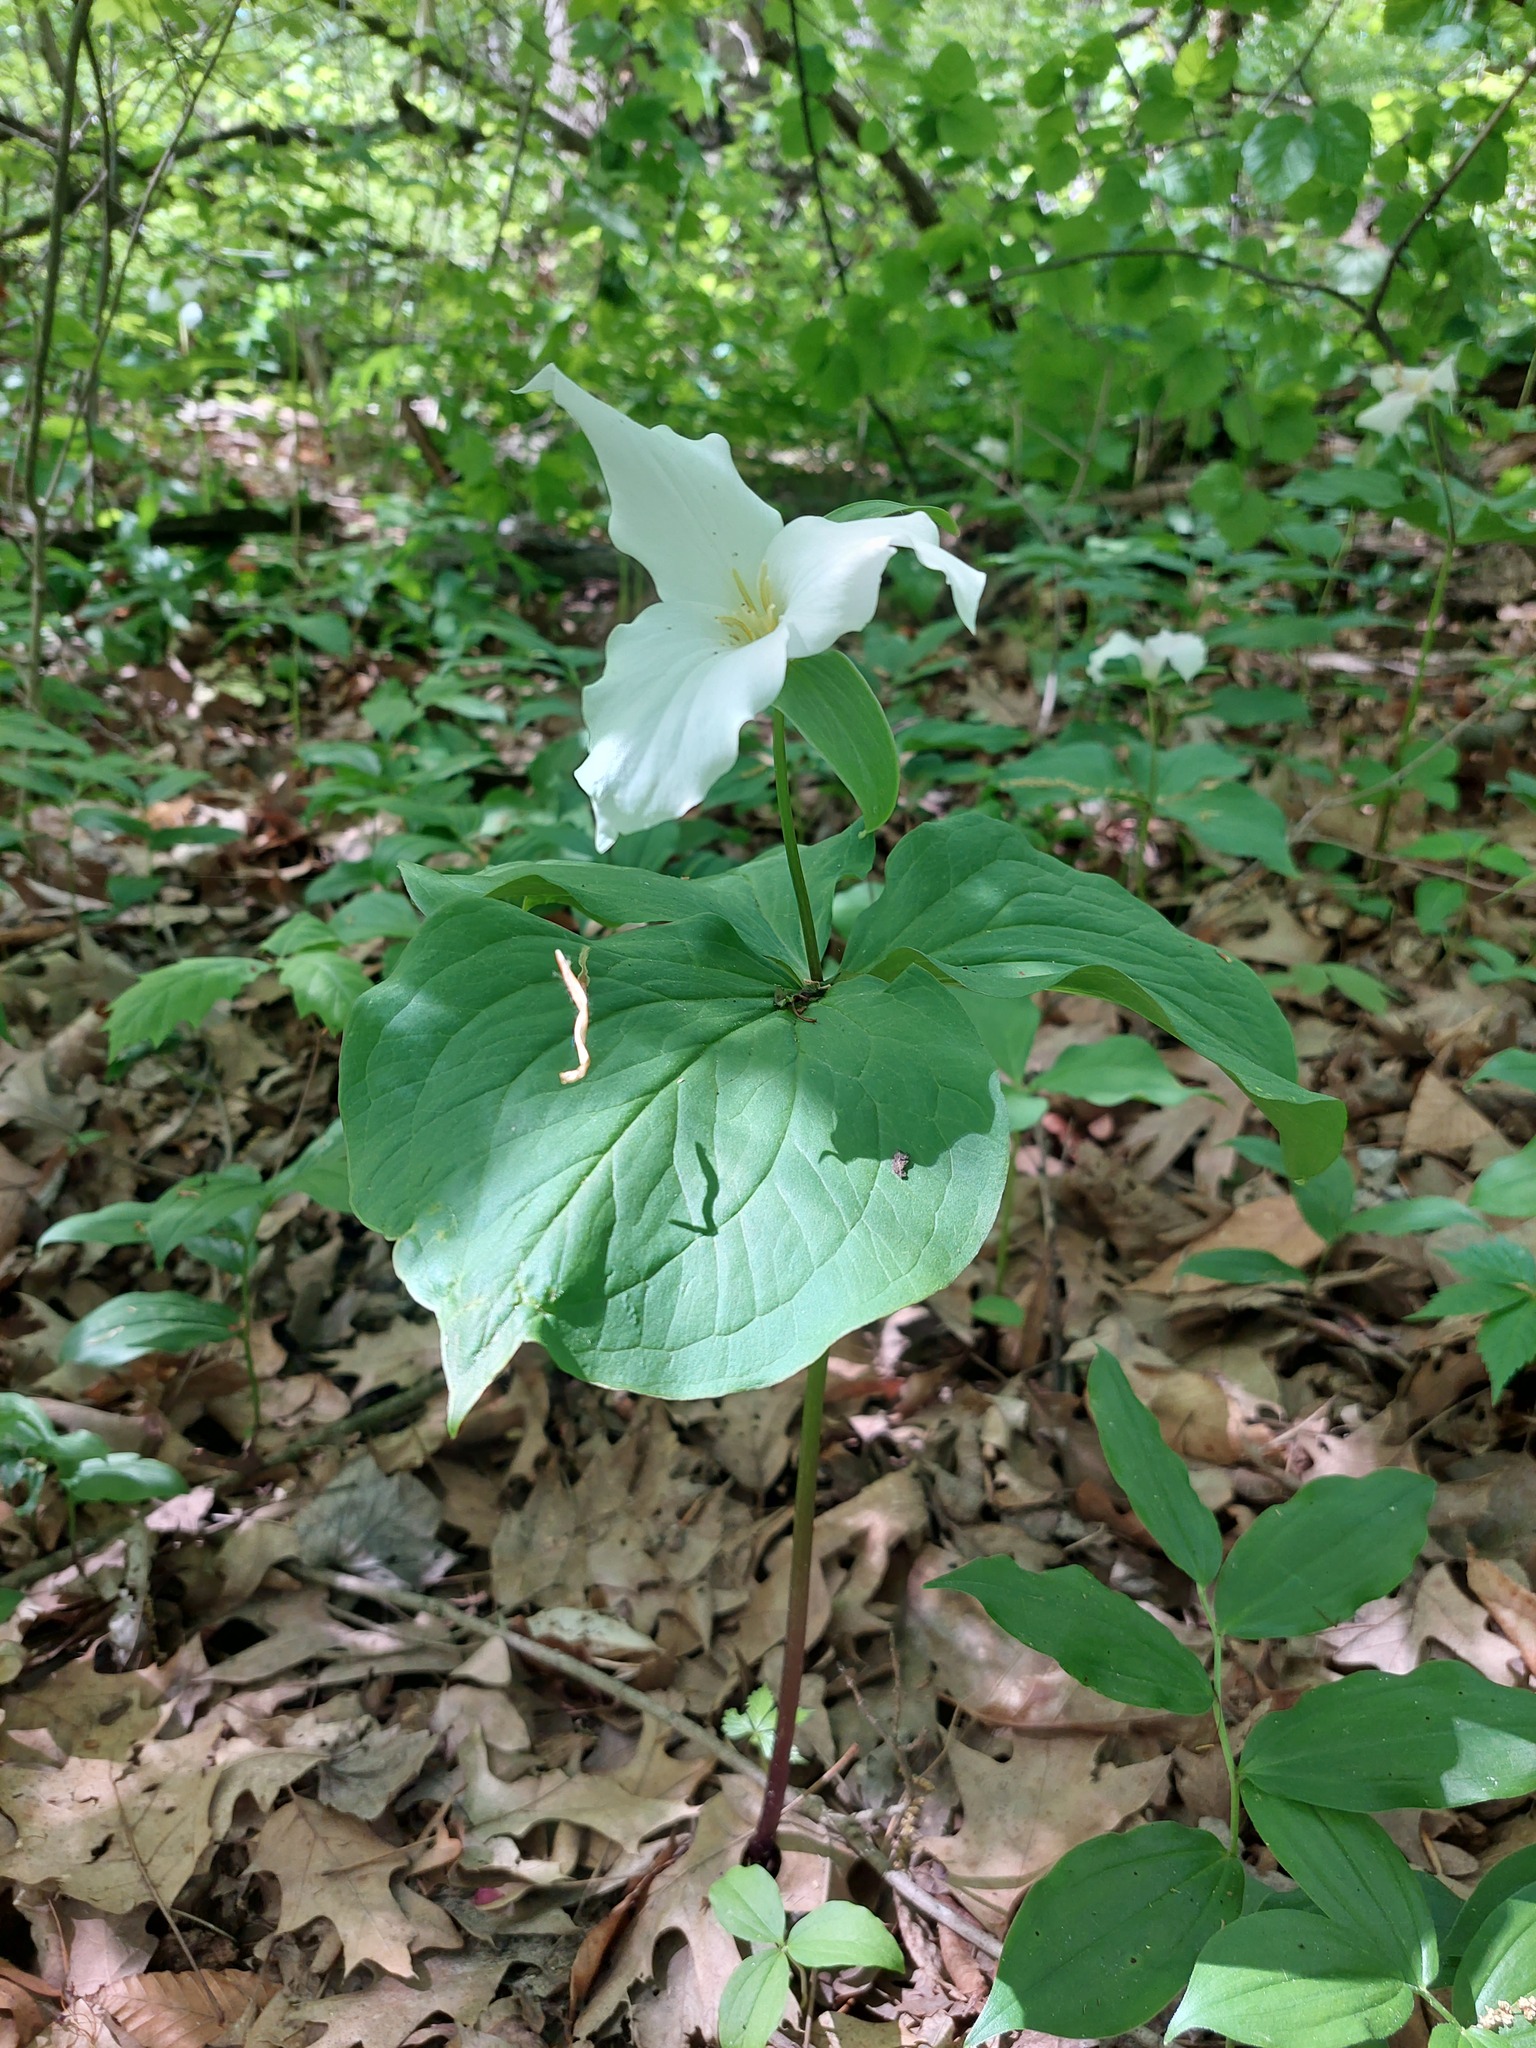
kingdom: Plantae
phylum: Tracheophyta
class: Liliopsida
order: Liliales
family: Melanthiaceae
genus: Trillium
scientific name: Trillium grandiflorum
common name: Great white trillium
